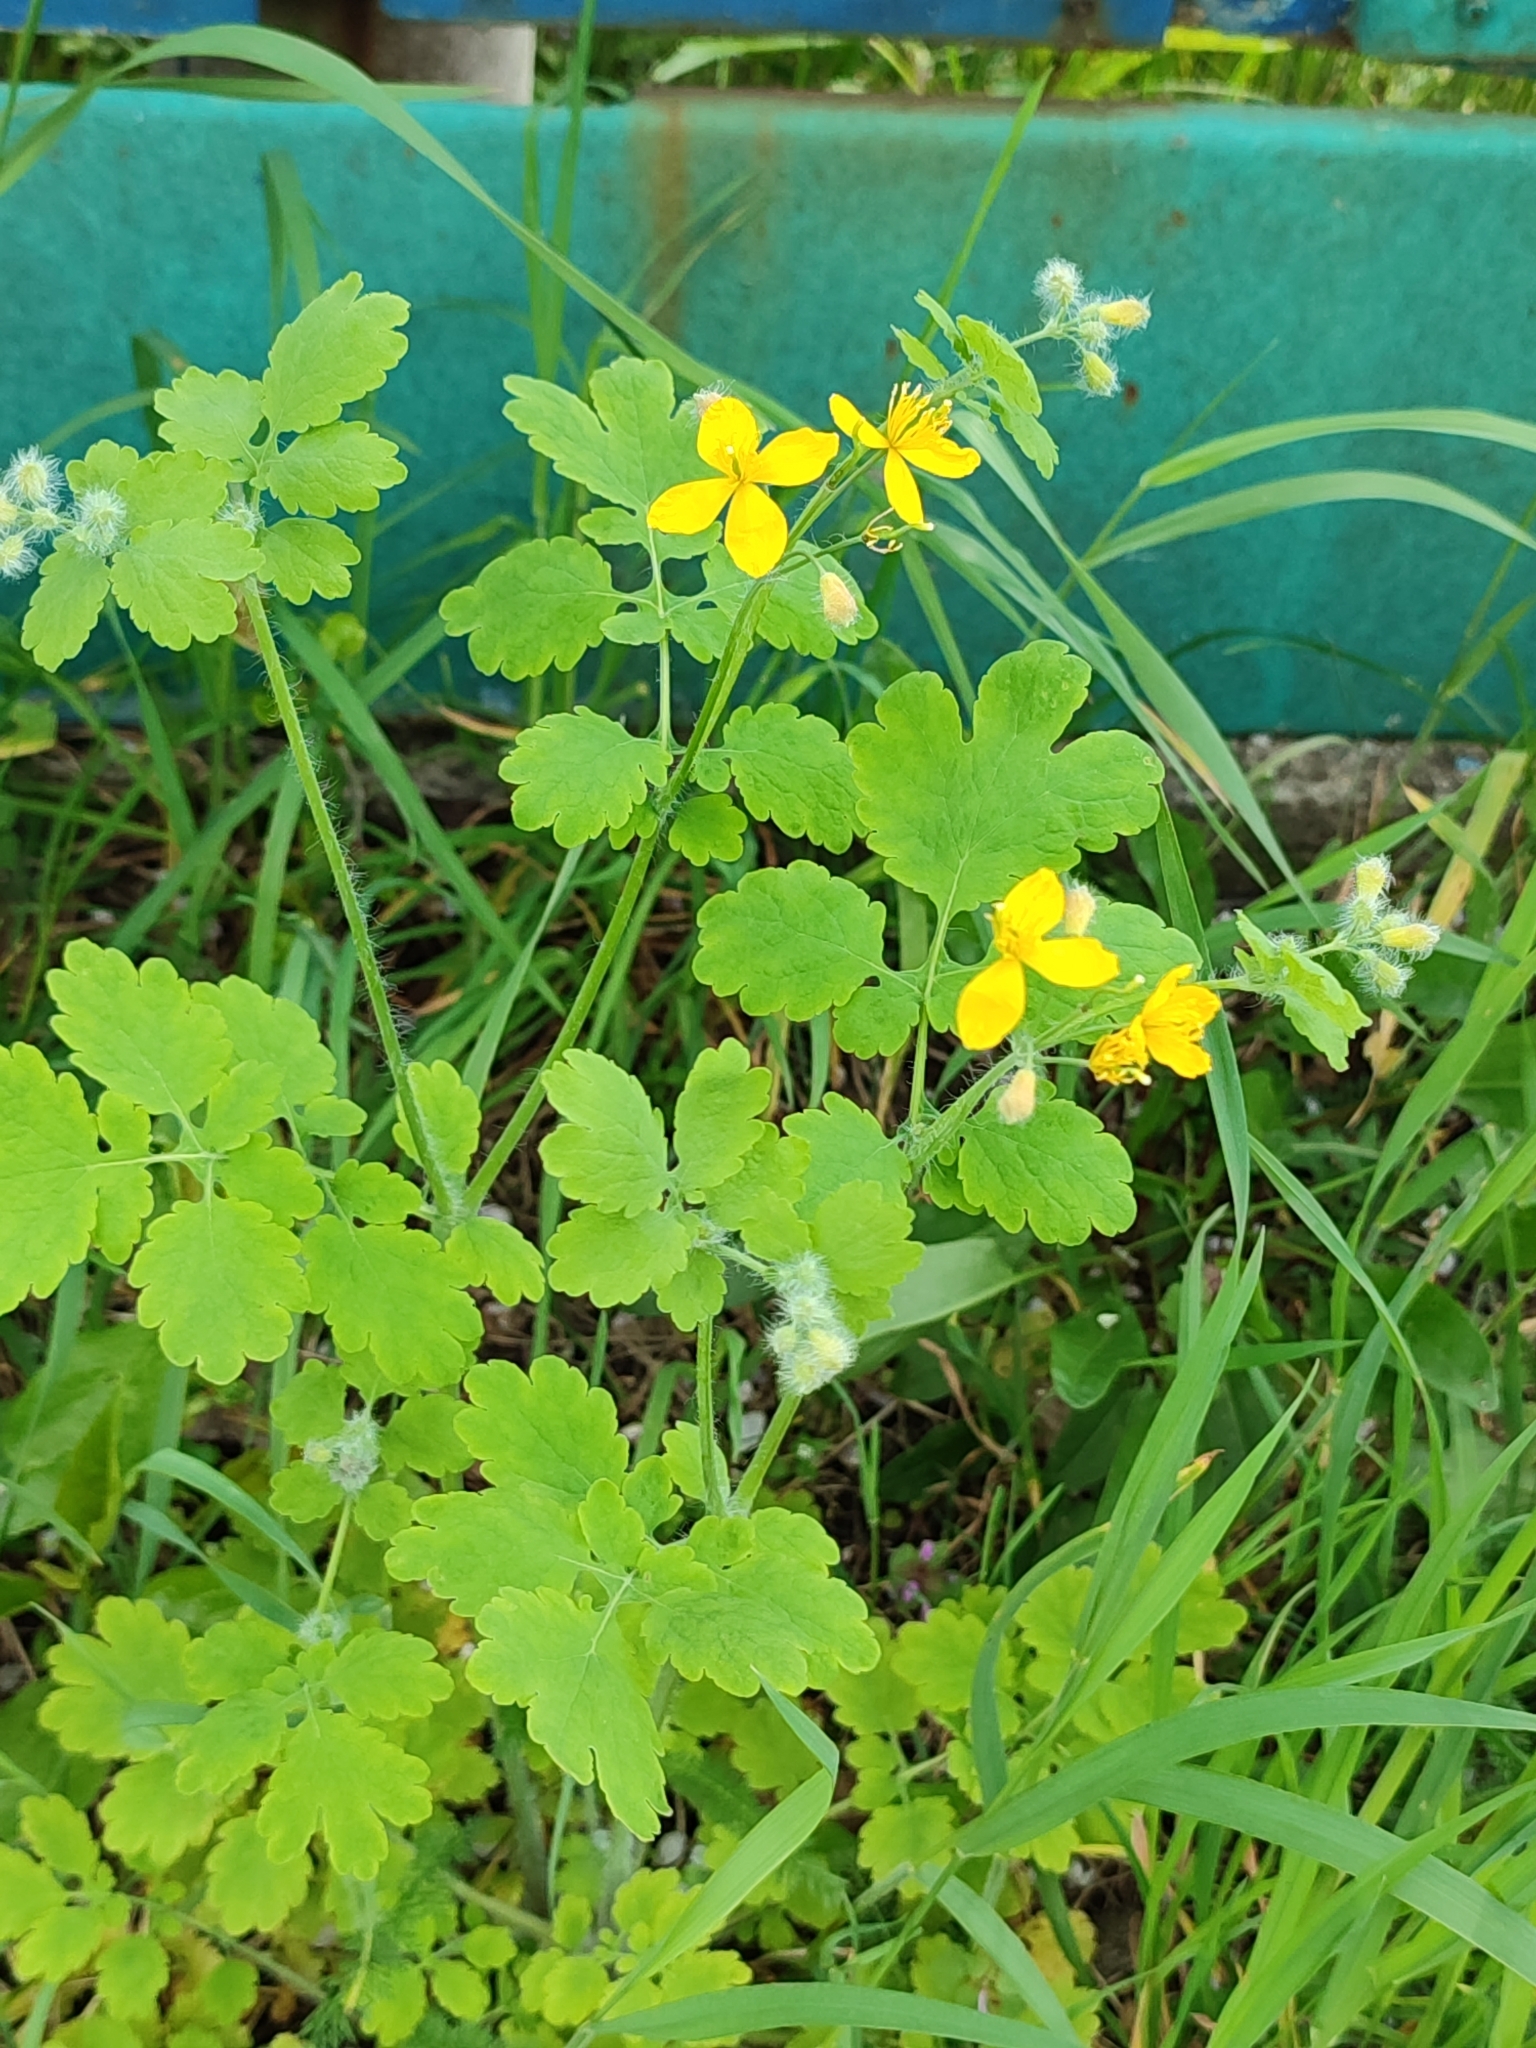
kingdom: Plantae
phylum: Tracheophyta
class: Magnoliopsida
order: Ranunculales
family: Papaveraceae
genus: Chelidonium
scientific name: Chelidonium majus
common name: Greater celandine
